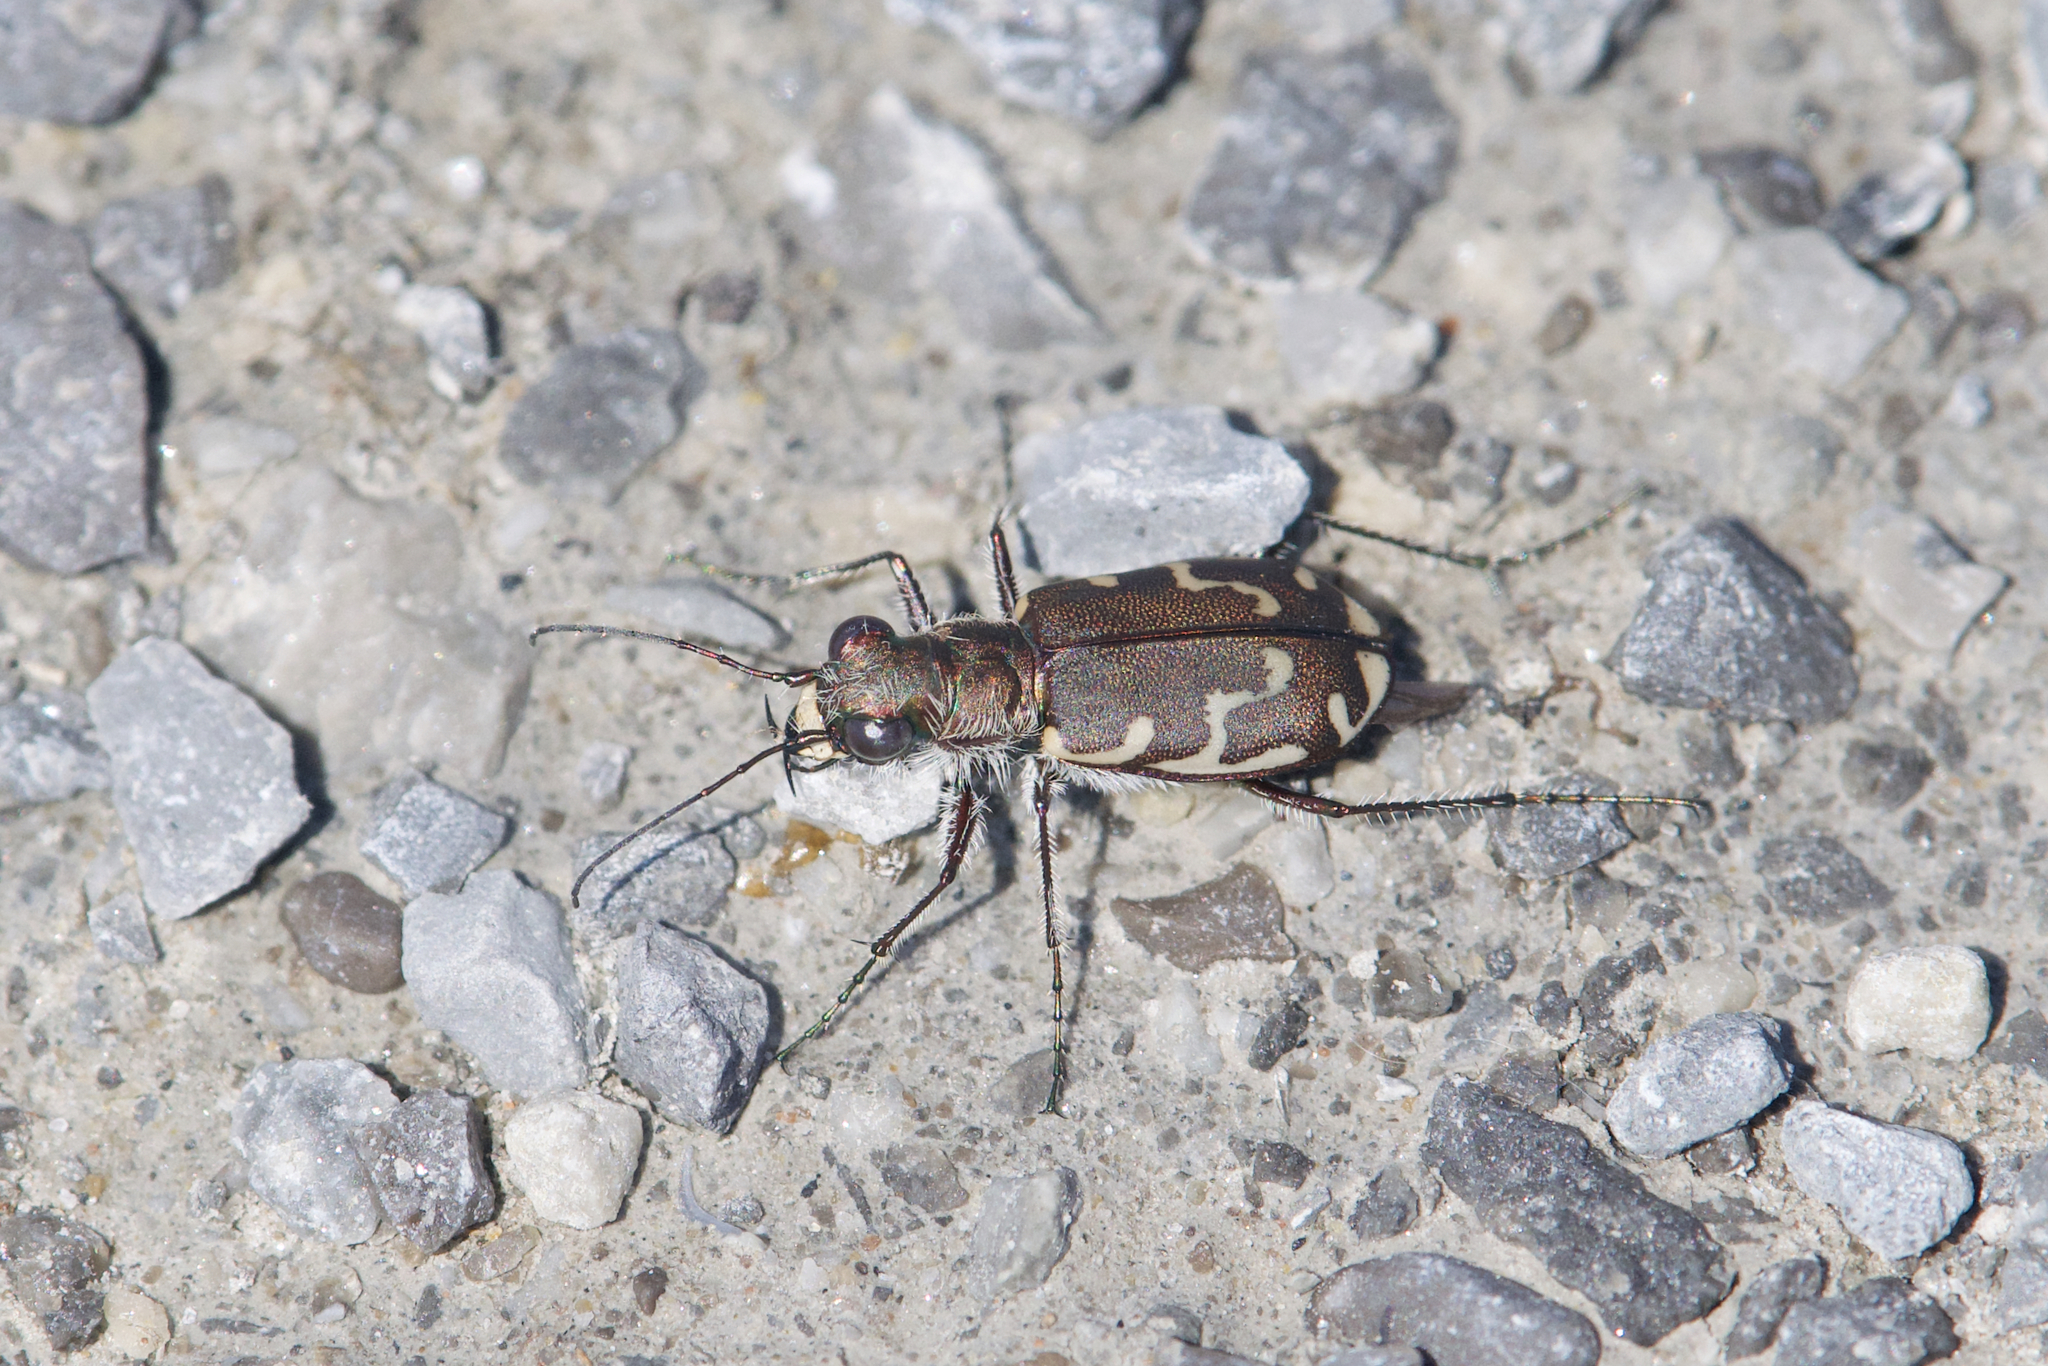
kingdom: Animalia
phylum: Arthropoda
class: Insecta
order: Coleoptera
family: Carabidae
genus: Cicindela
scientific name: Cicindela repanda
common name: Bronzed tiger beetle
